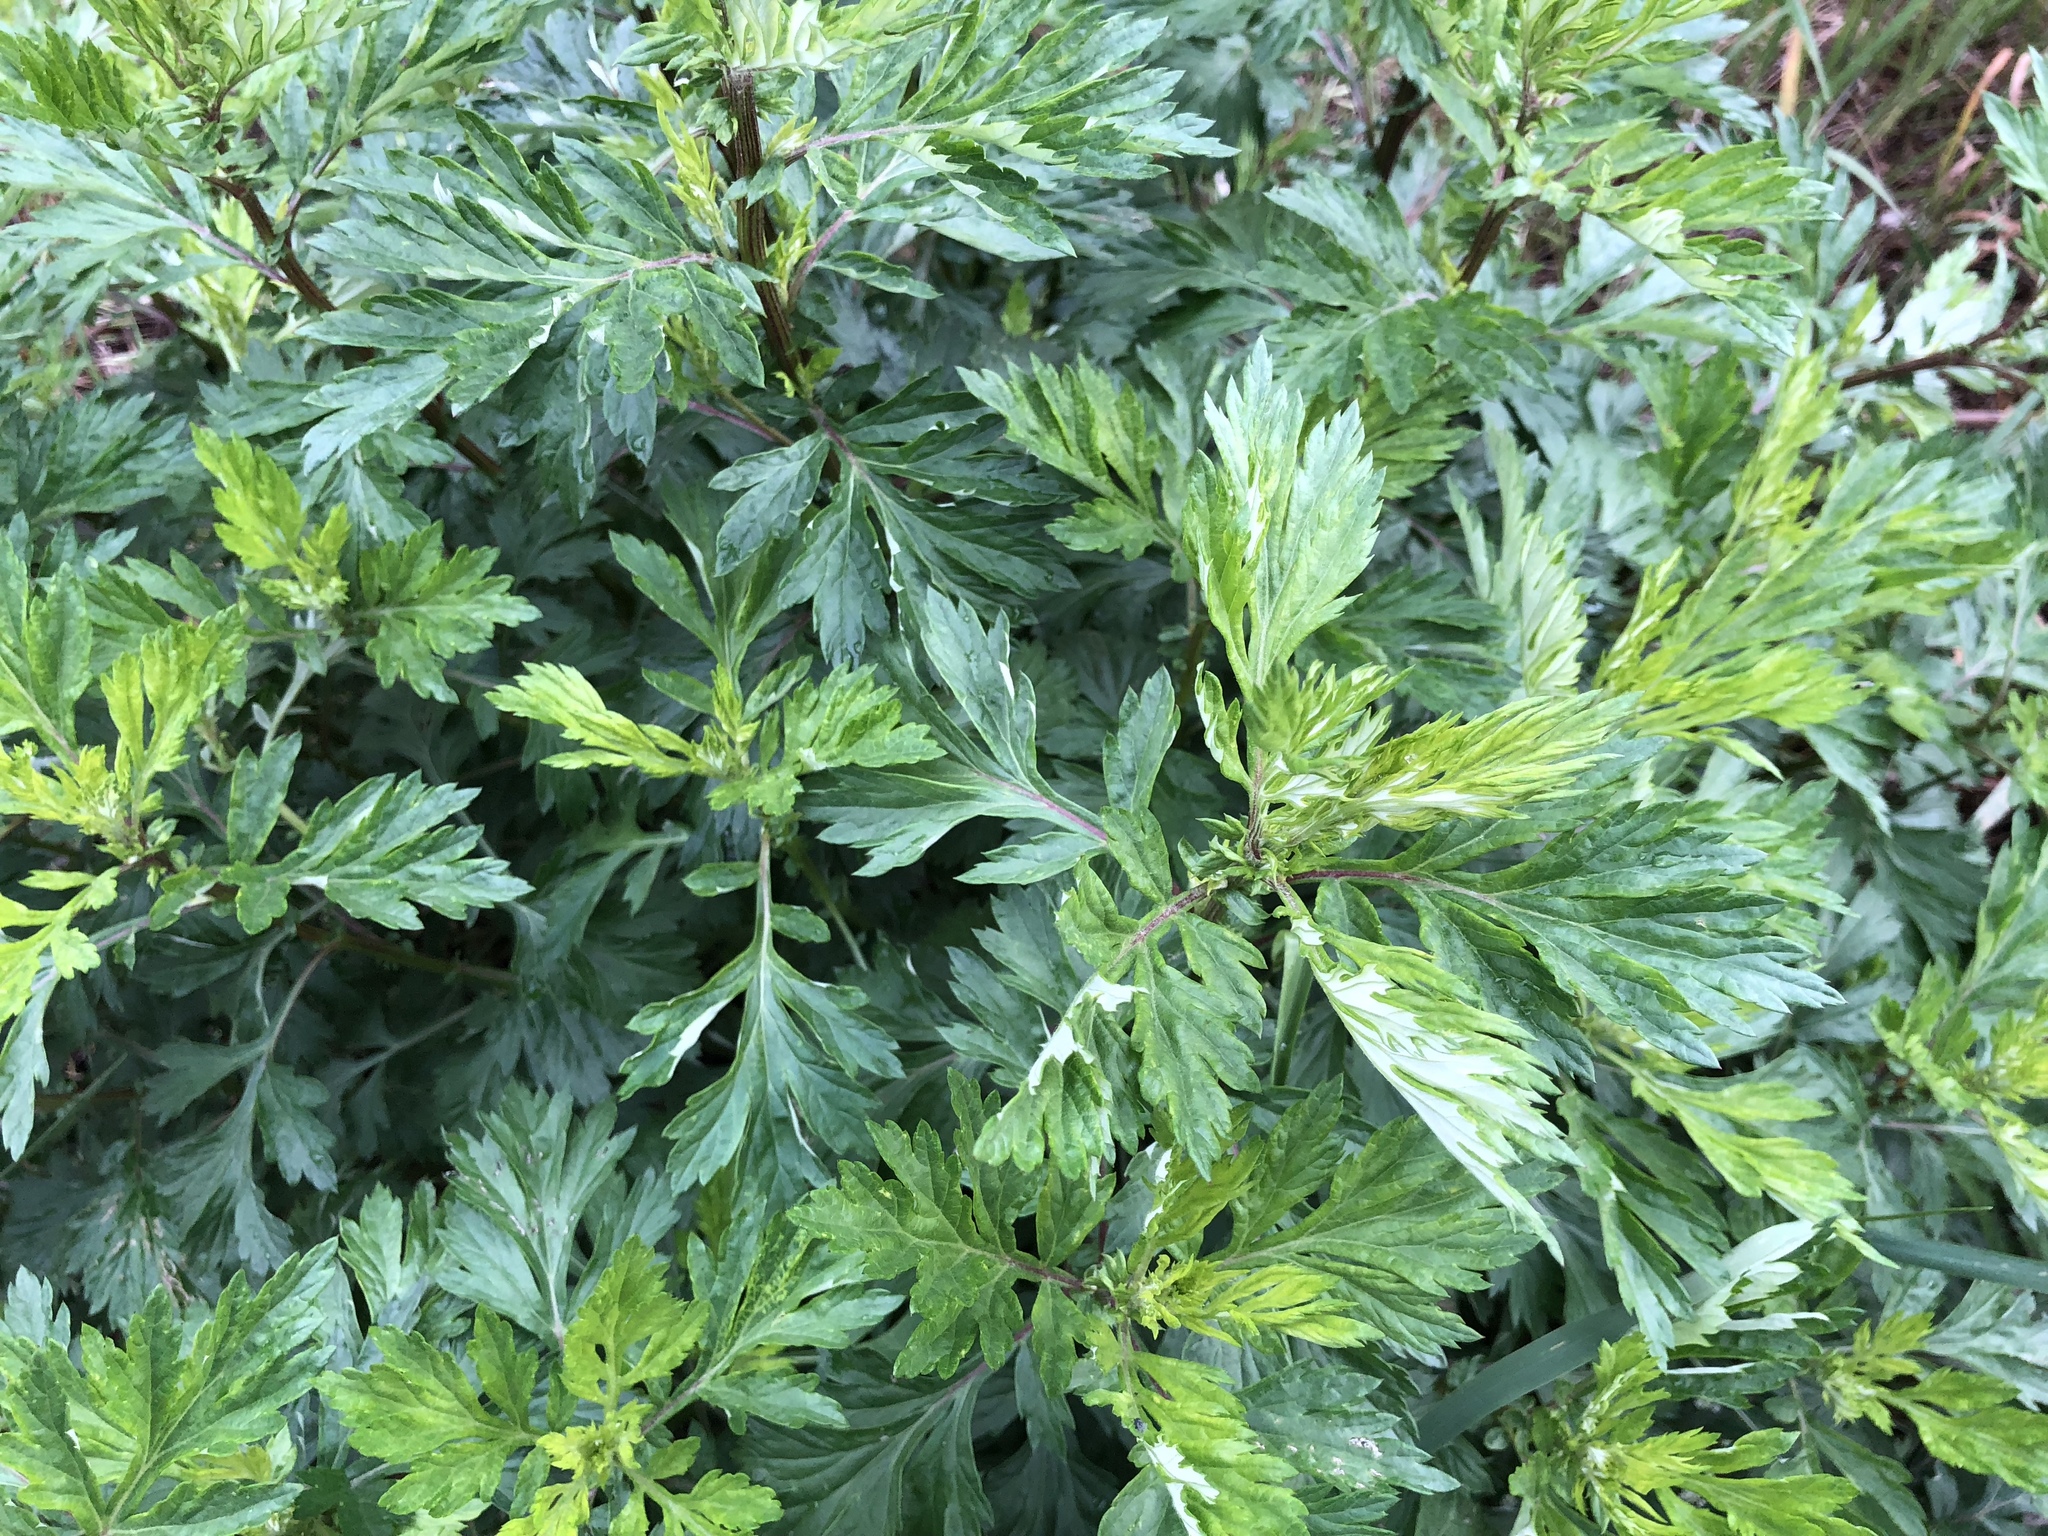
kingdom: Plantae
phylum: Tracheophyta
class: Magnoliopsida
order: Asterales
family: Asteraceae
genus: Artemisia
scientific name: Artemisia vulgaris
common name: Mugwort
